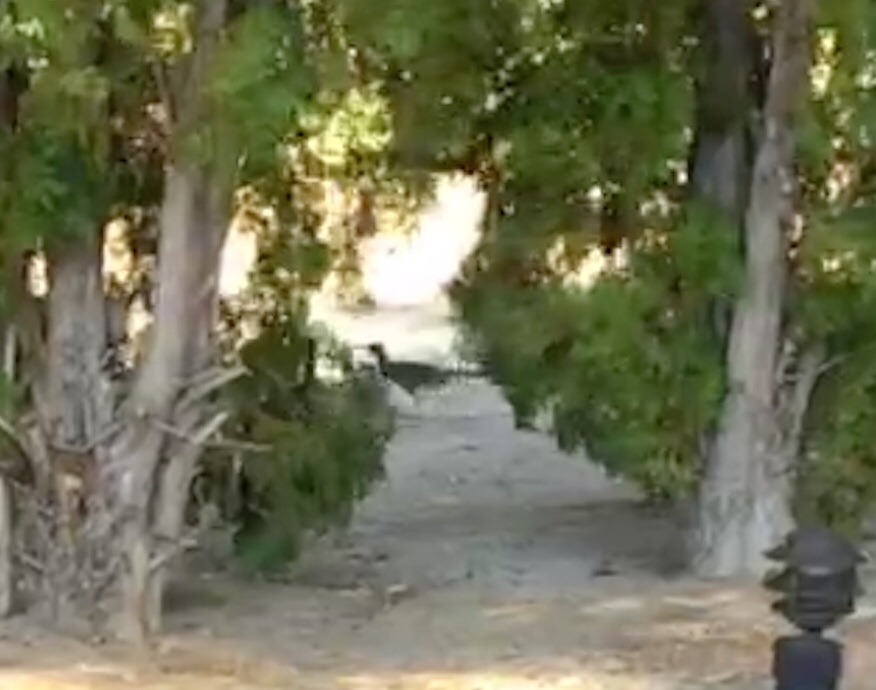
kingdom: Animalia
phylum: Chordata
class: Aves
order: Cuculiformes
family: Cuculidae
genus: Geococcyx
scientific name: Geococcyx californianus
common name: Greater roadrunner
